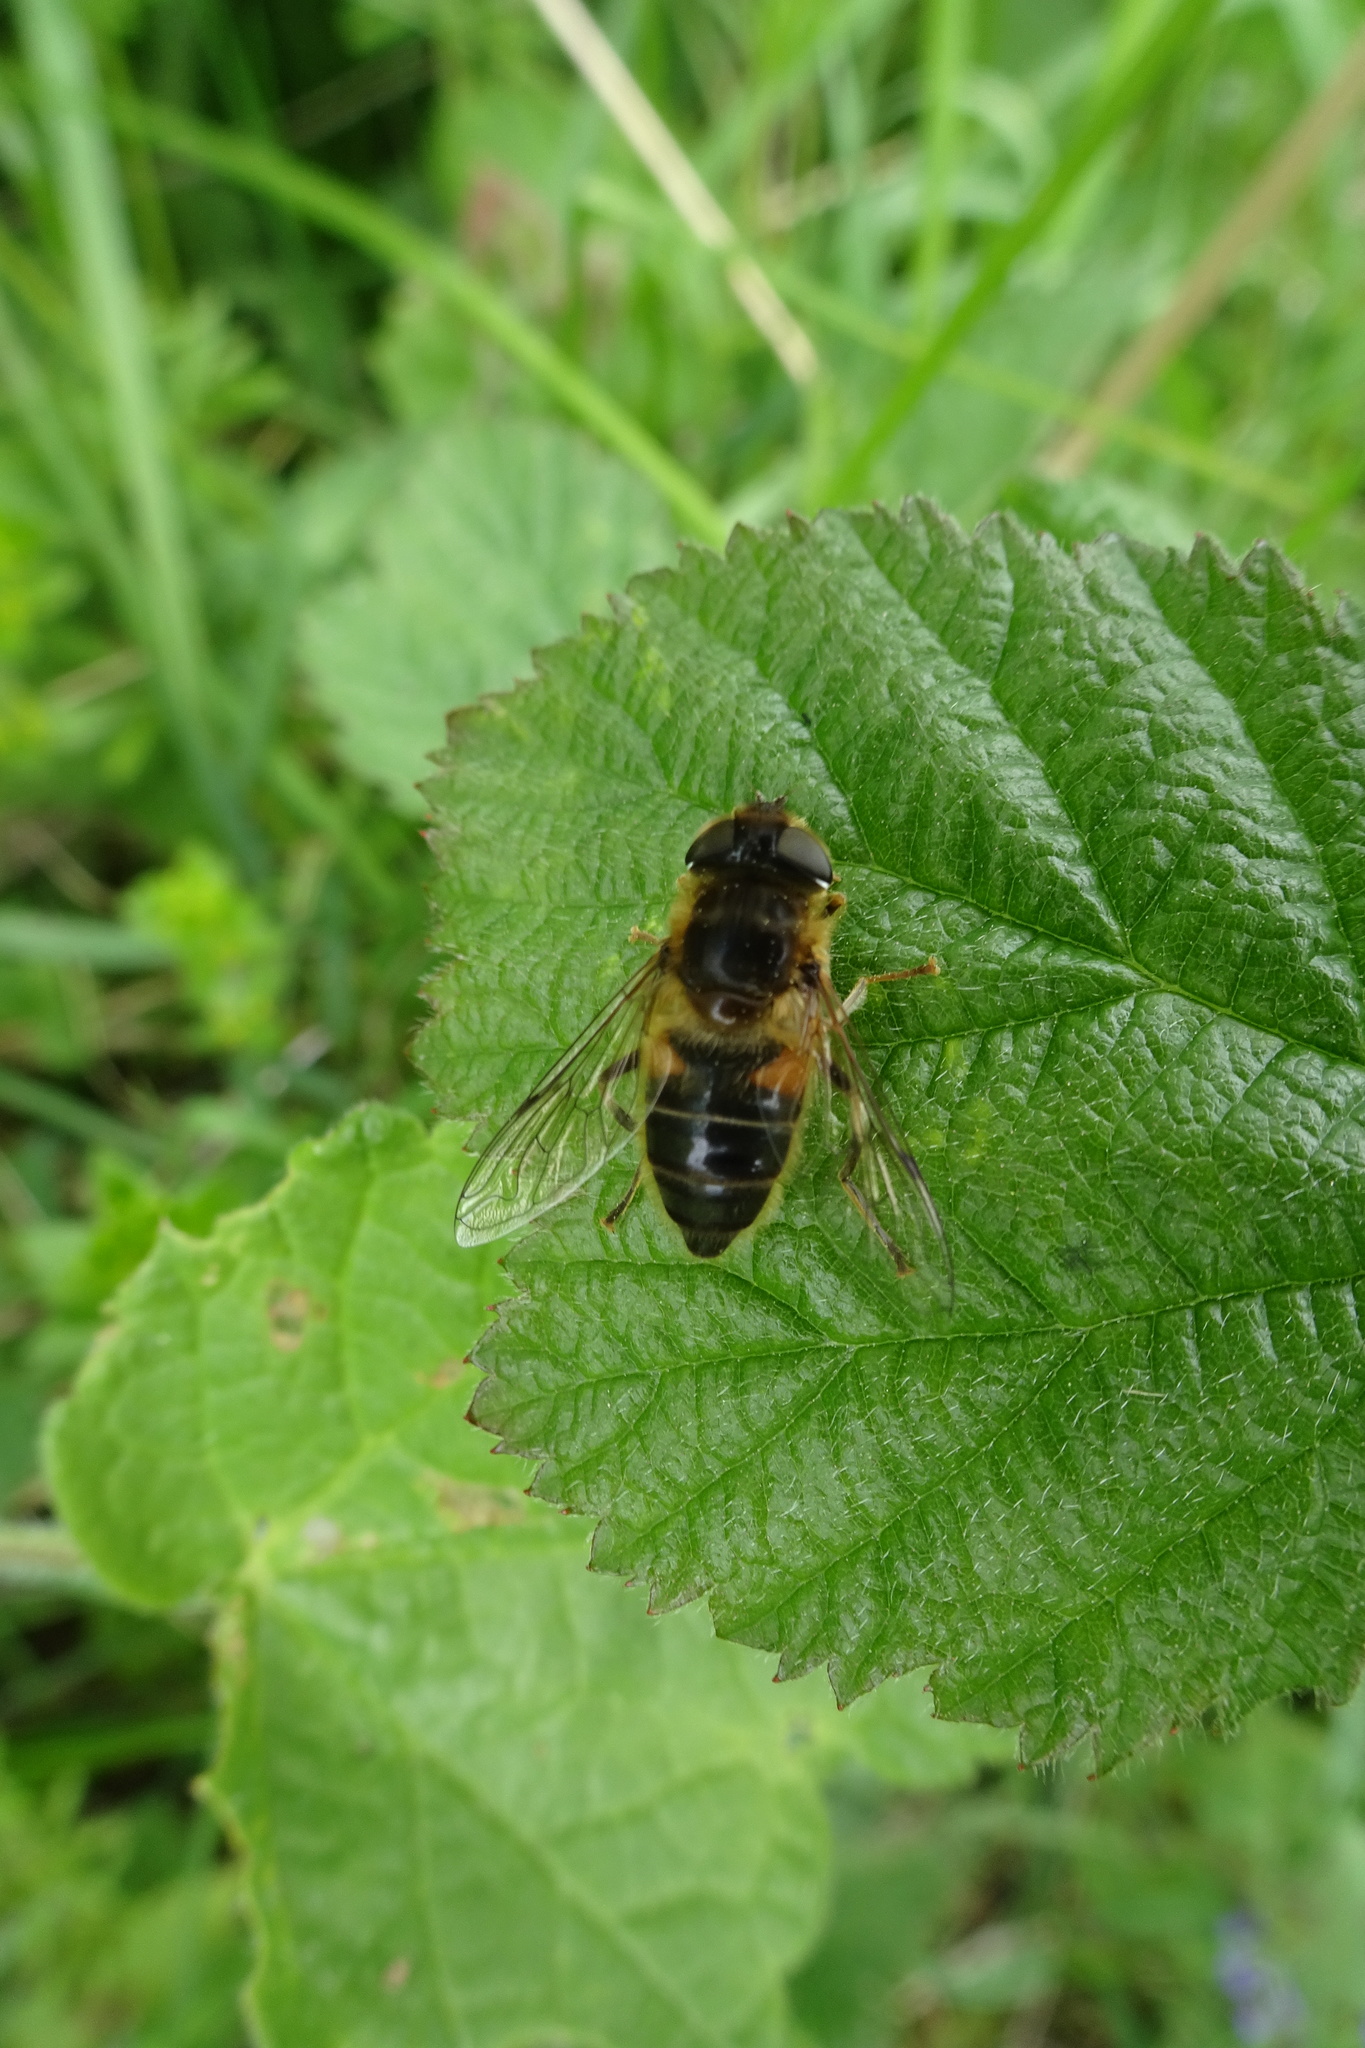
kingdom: Animalia
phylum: Arthropoda
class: Insecta
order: Diptera
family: Syrphidae
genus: Eristalis
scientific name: Eristalis pertinax
